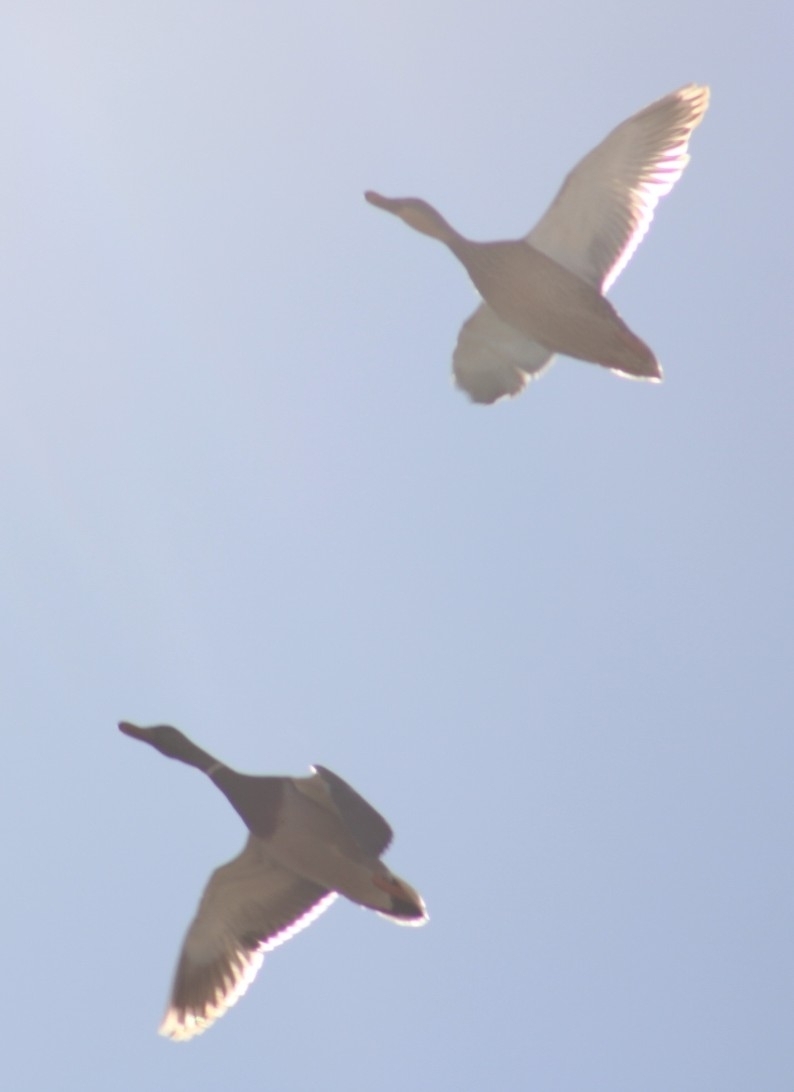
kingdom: Animalia
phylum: Chordata
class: Aves
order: Anseriformes
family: Anatidae
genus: Anas
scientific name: Anas platyrhynchos
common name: Mallard
